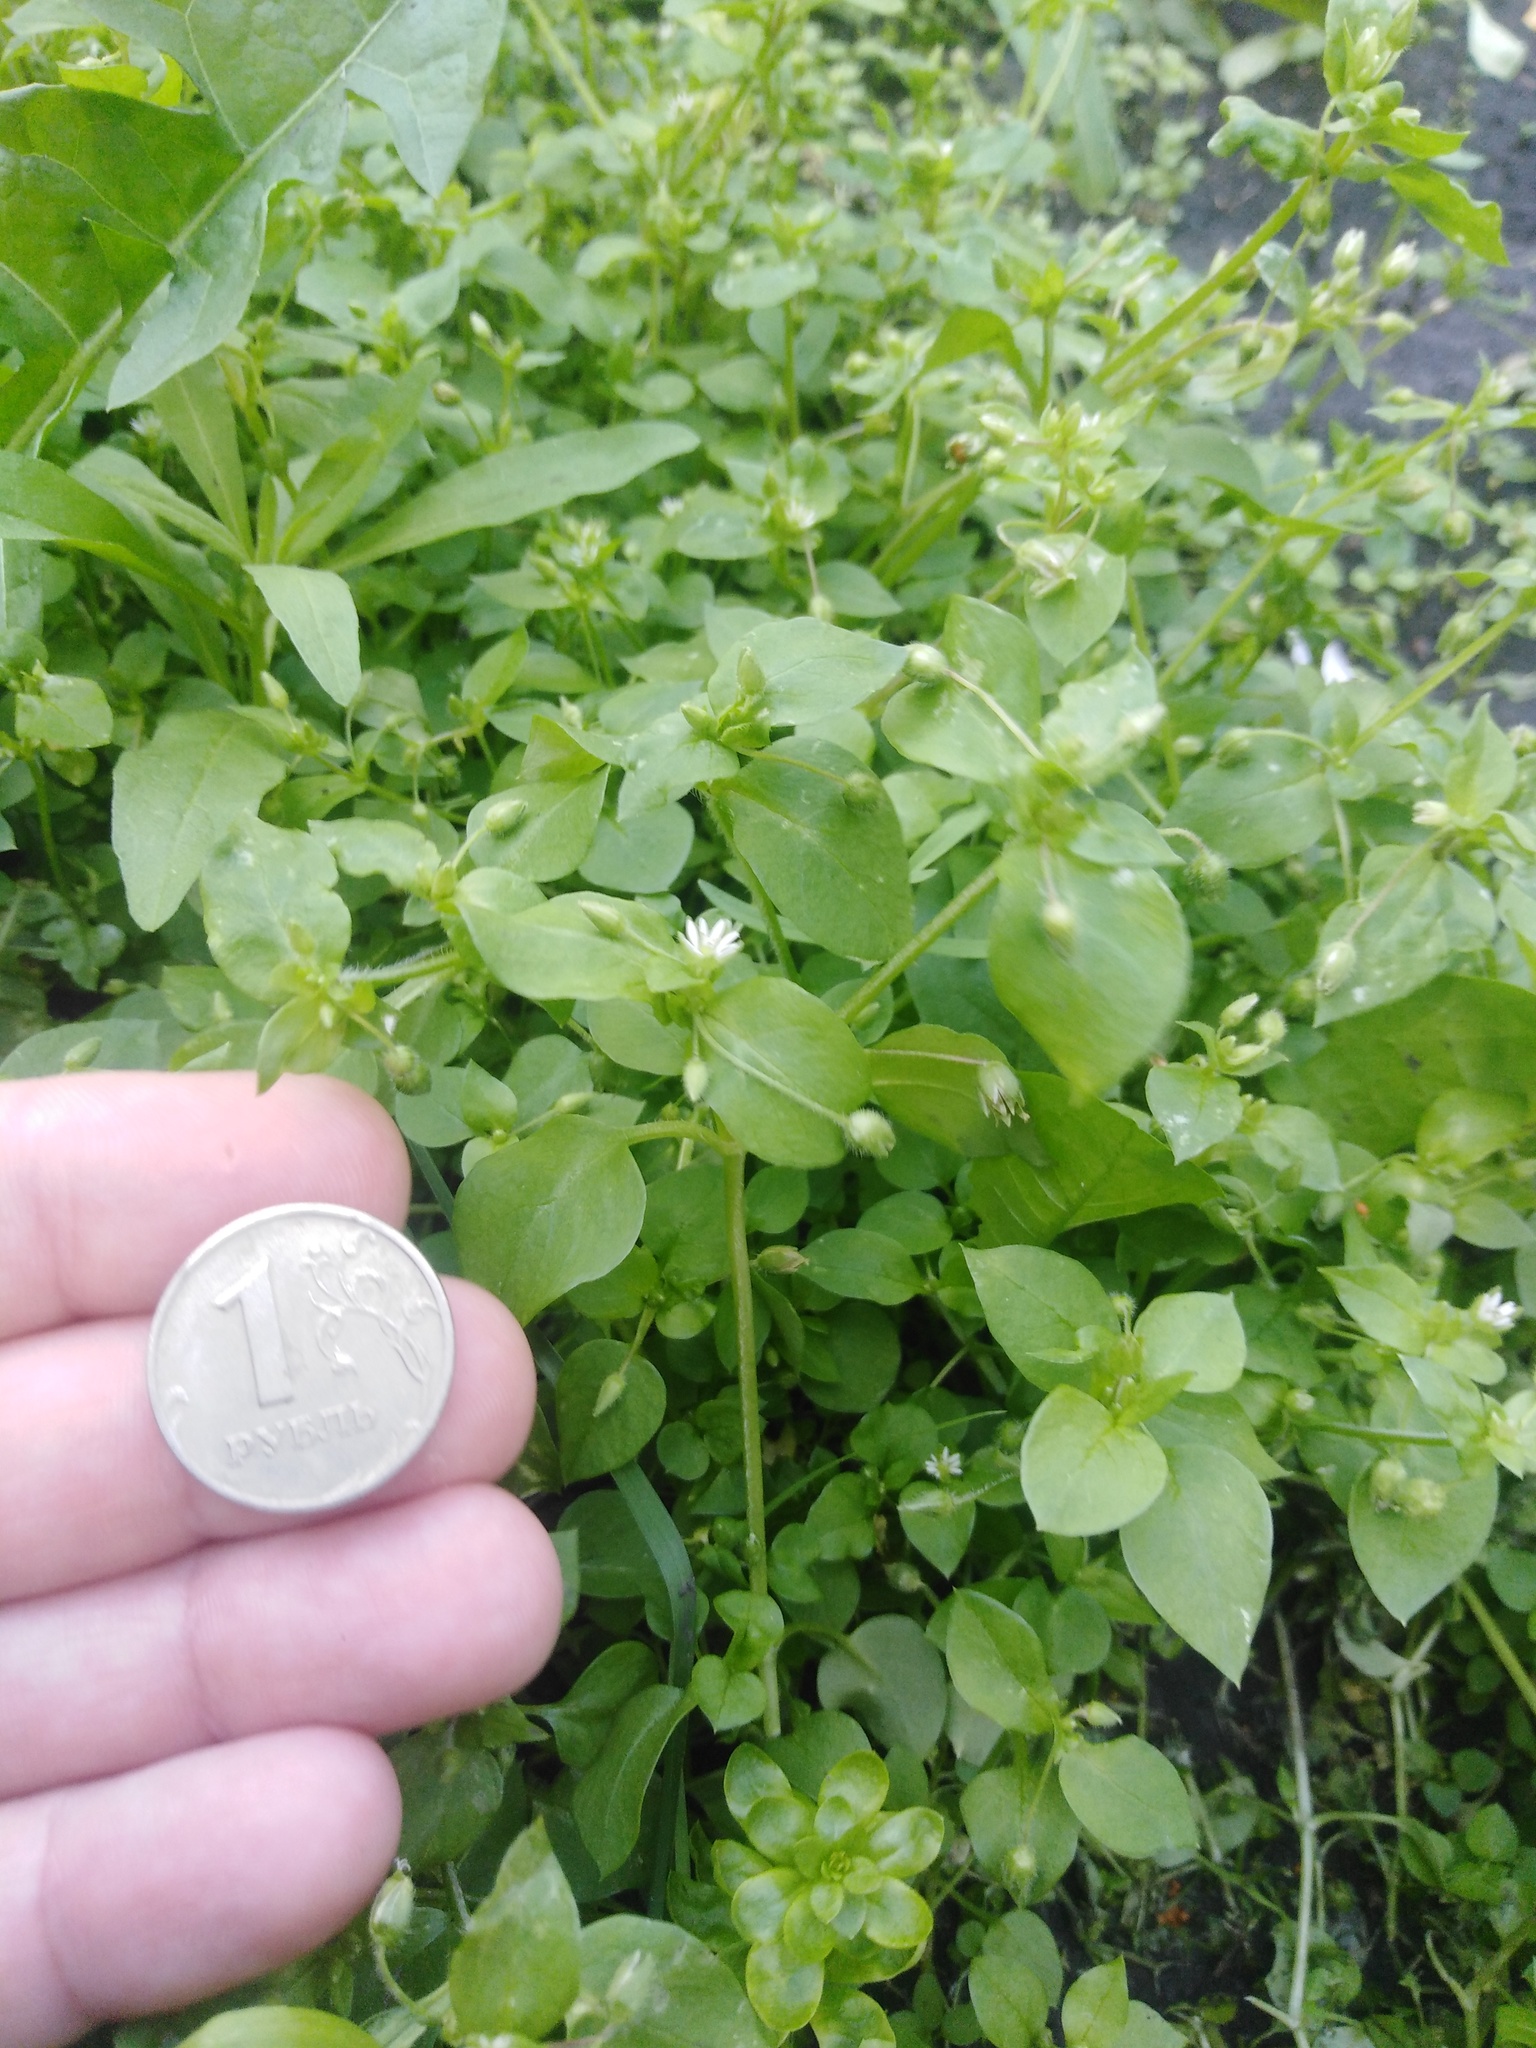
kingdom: Plantae
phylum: Tracheophyta
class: Magnoliopsida
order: Caryophyllales
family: Caryophyllaceae
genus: Stellaria
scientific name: Stellaria media
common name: Common chickweed
